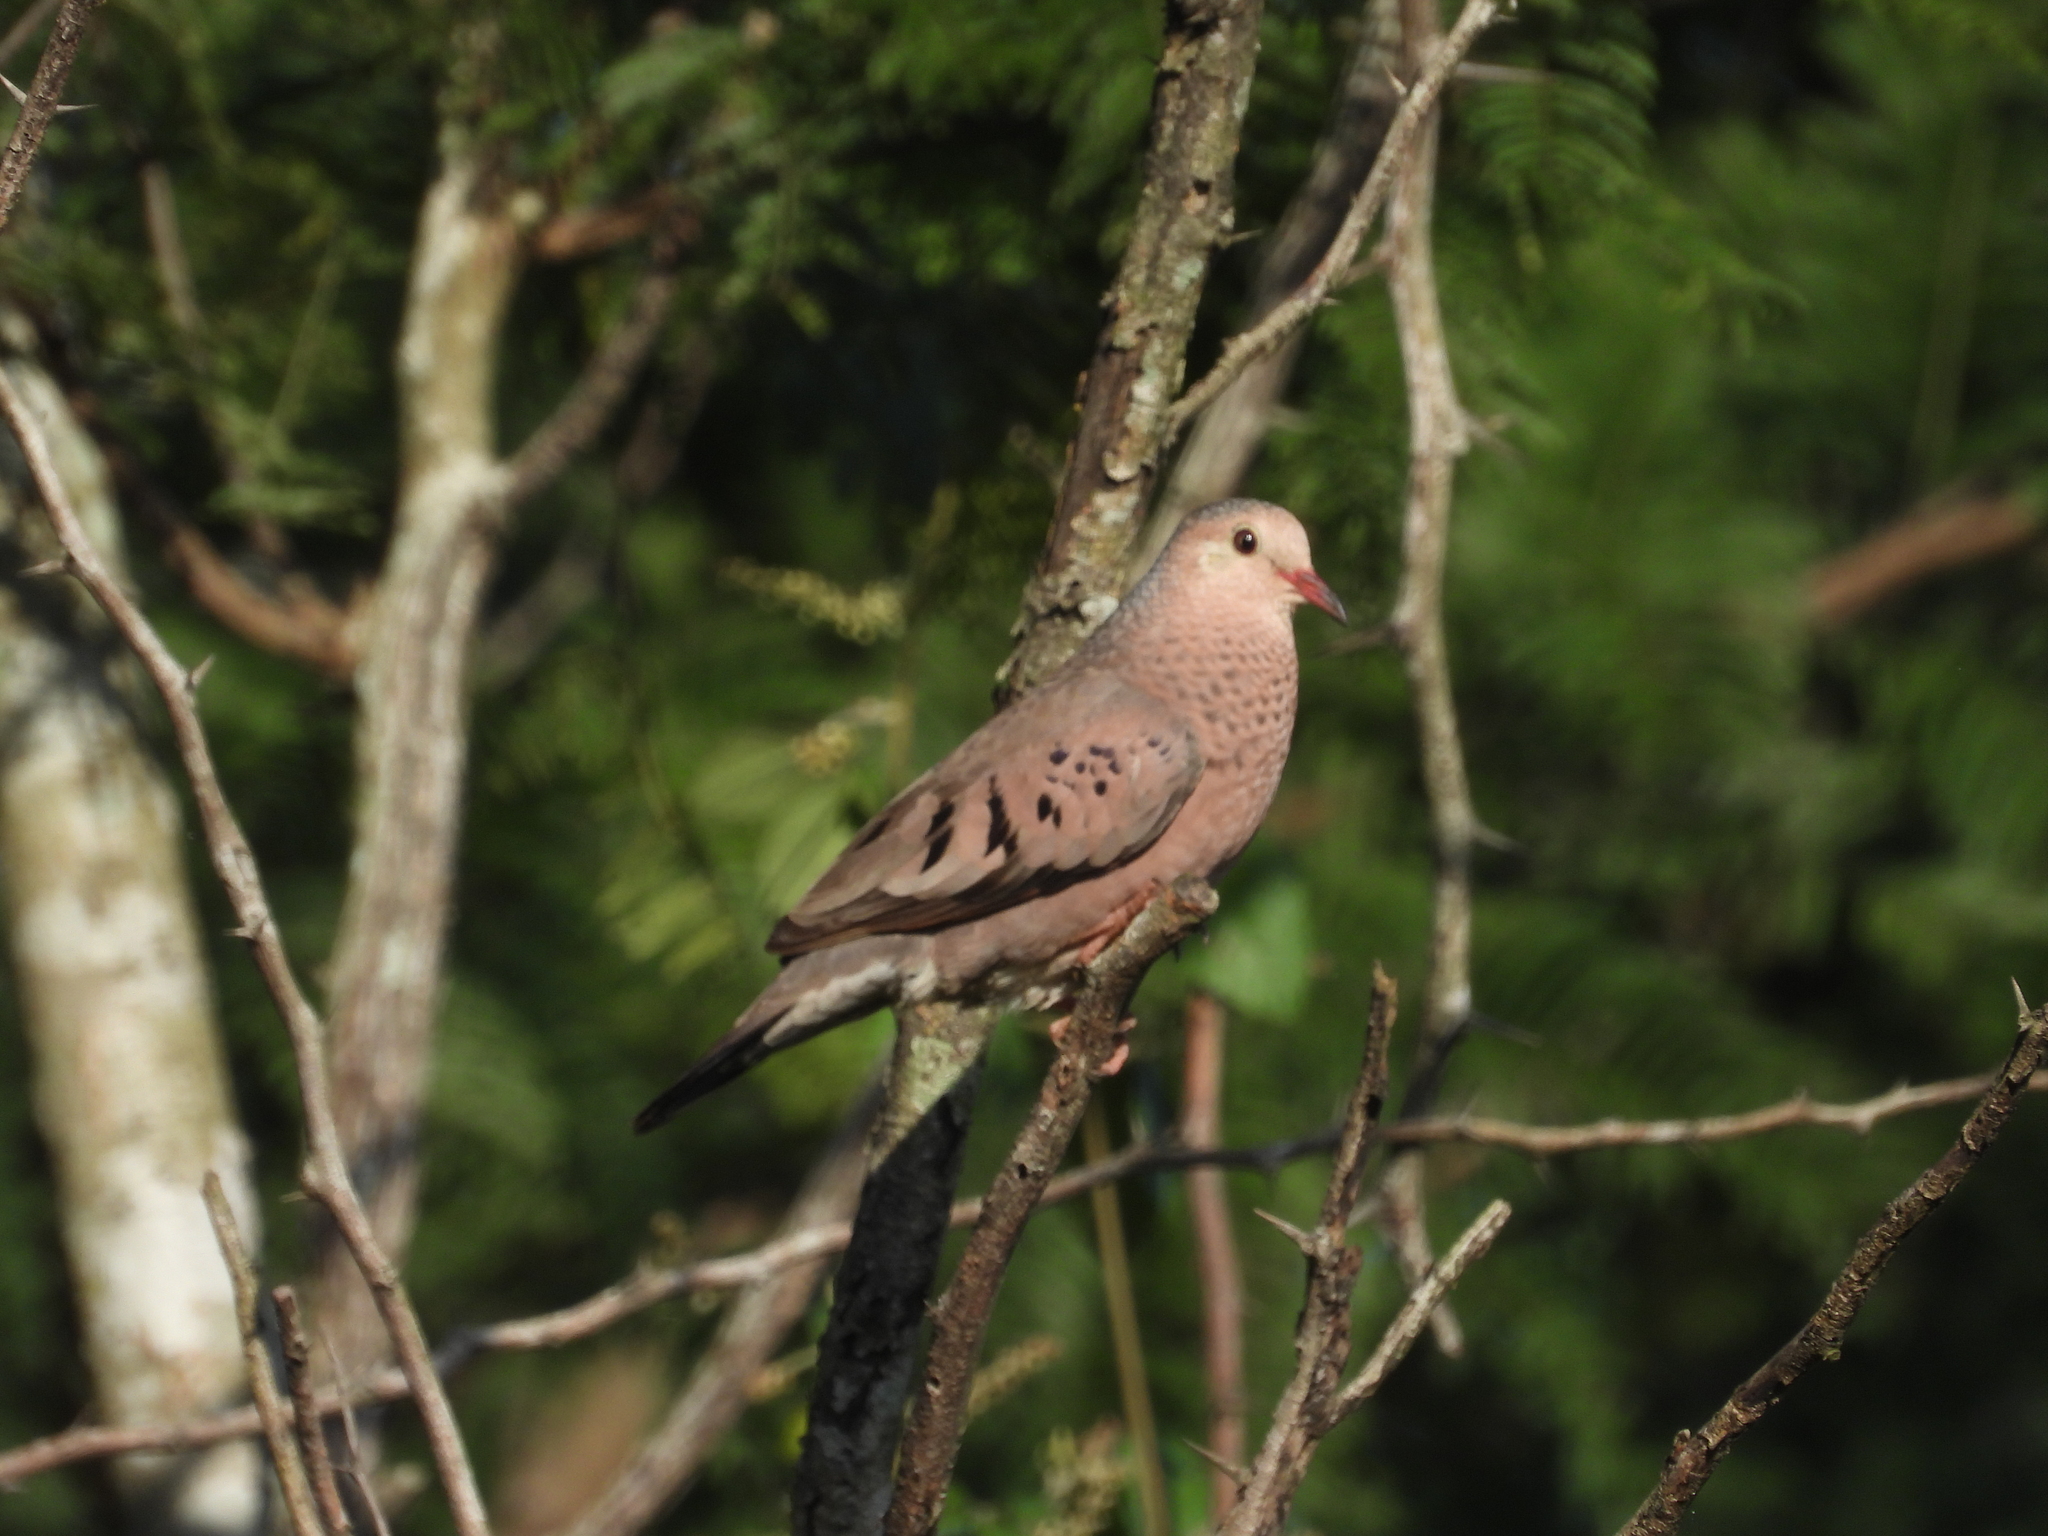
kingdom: Animalia
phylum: Chordata
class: Aves
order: Columbiformes
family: Columbidae
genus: Columbina
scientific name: Columbina passerina
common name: Common ground-dove
